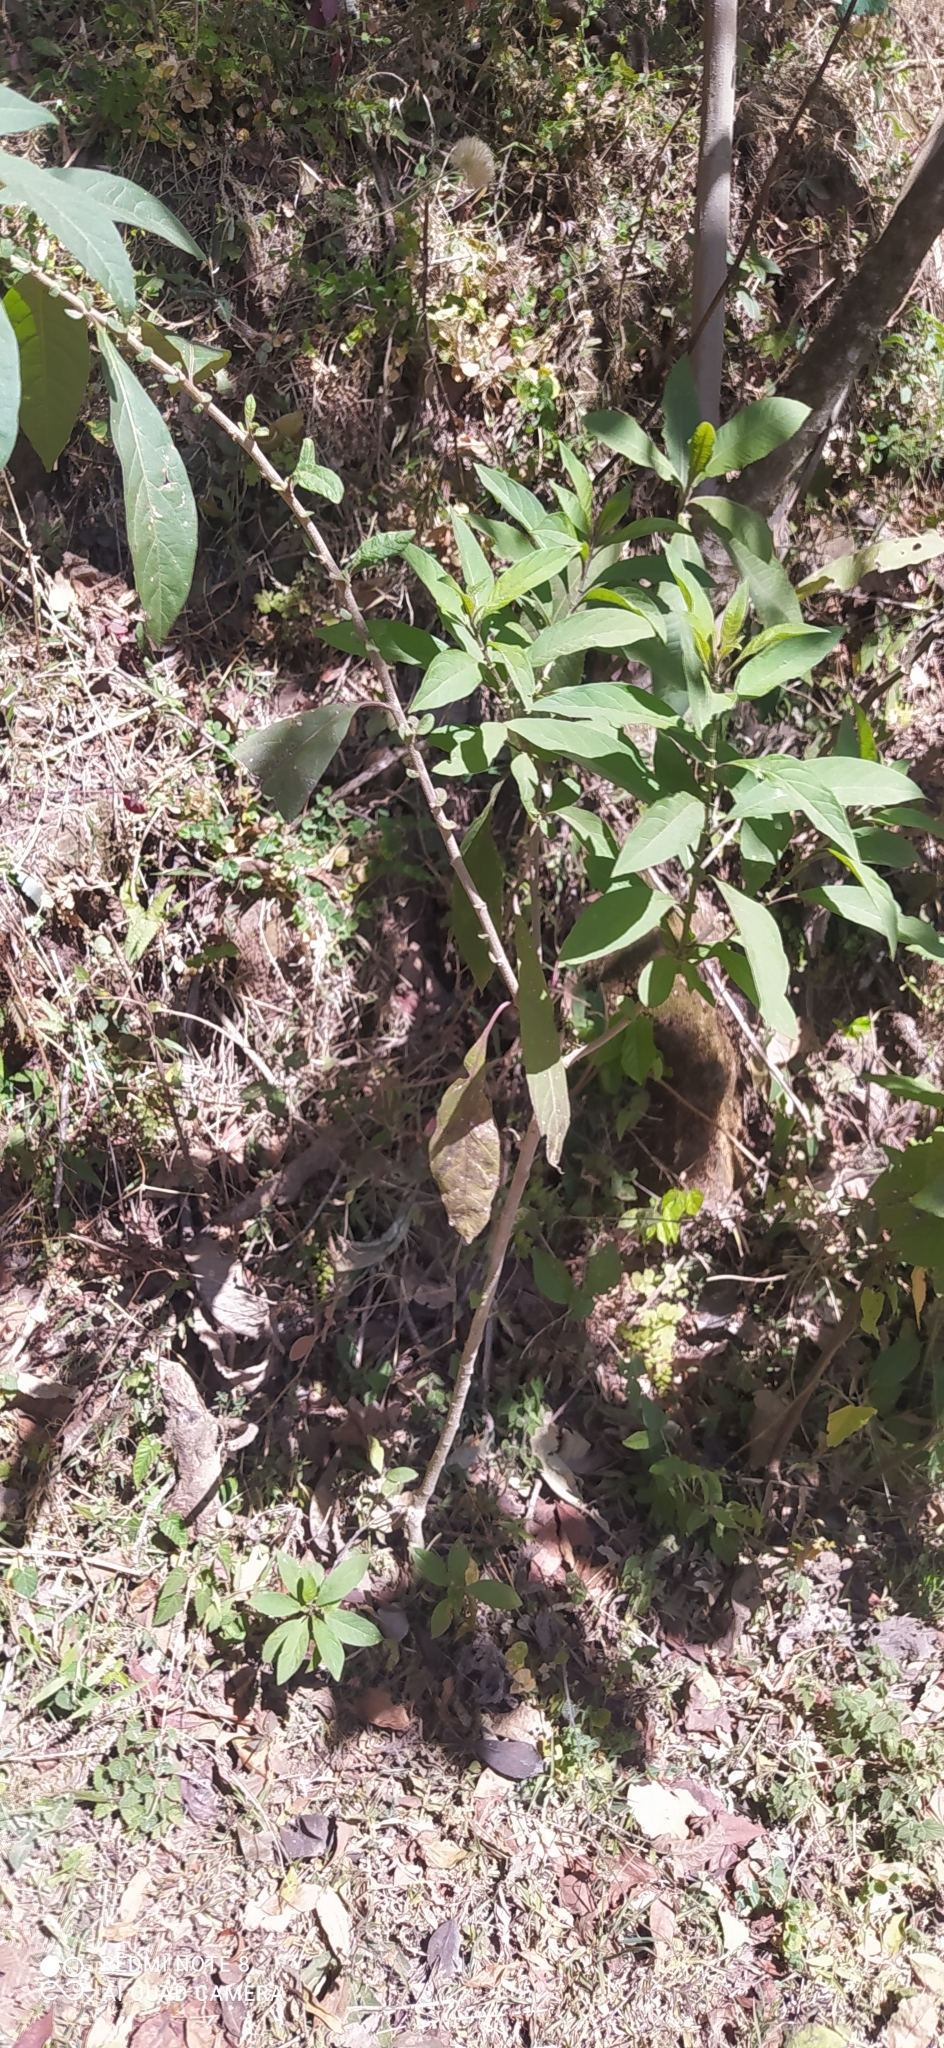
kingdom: Plantae
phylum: Tracheophyta
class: Magnoliopsida
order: Solanales
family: Solanaceae
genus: Cestrum
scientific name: Cestrum parqui
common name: Chilean cestrum
